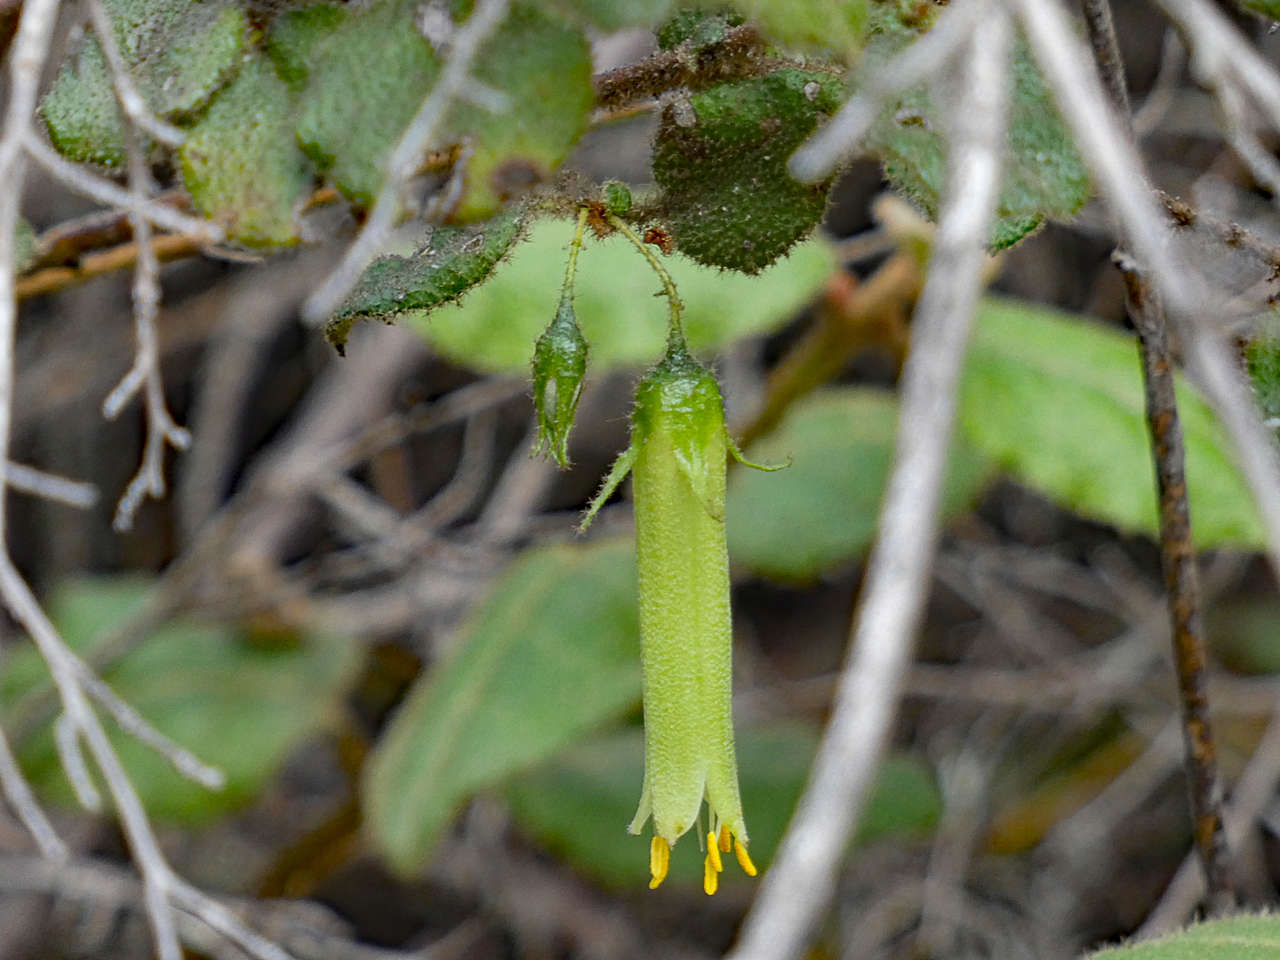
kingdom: Plantae
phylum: Tracheophyta
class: Magnoliopsida
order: Sapindales
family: Rutaceae
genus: Correa
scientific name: Correa aemula
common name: Hairy correa
